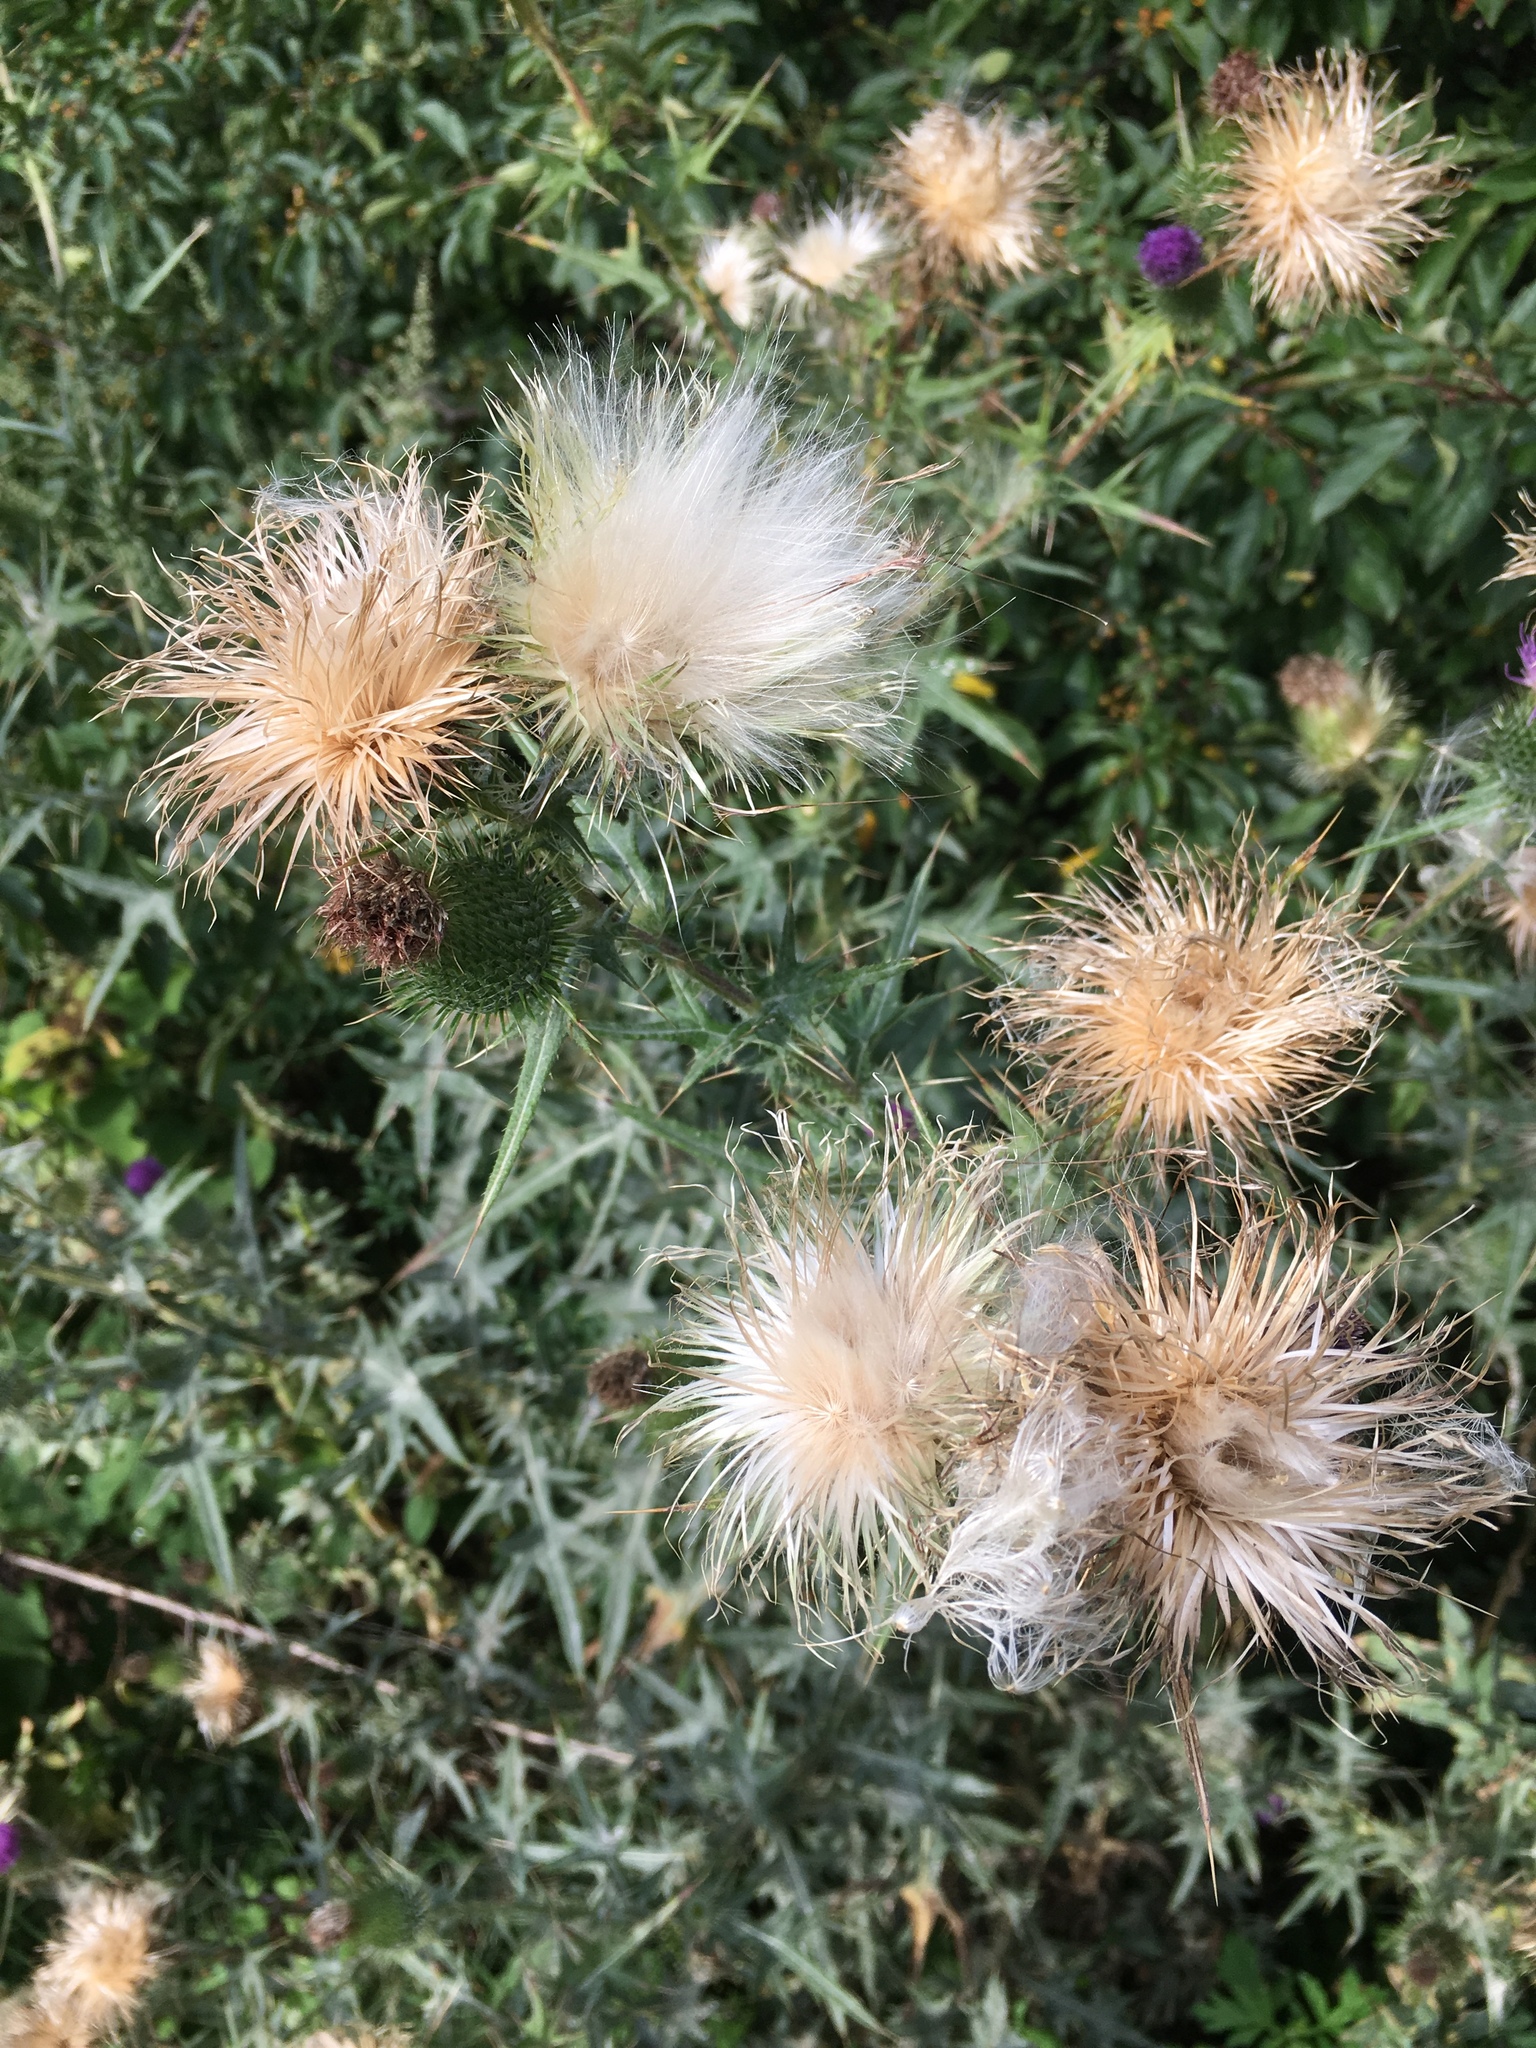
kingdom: Plantae
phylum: Tracheophyta
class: Magnoliopsida
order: Asterales
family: Asteraceae
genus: Cirsium
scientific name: Cirsium vulgare
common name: Bull thistle
